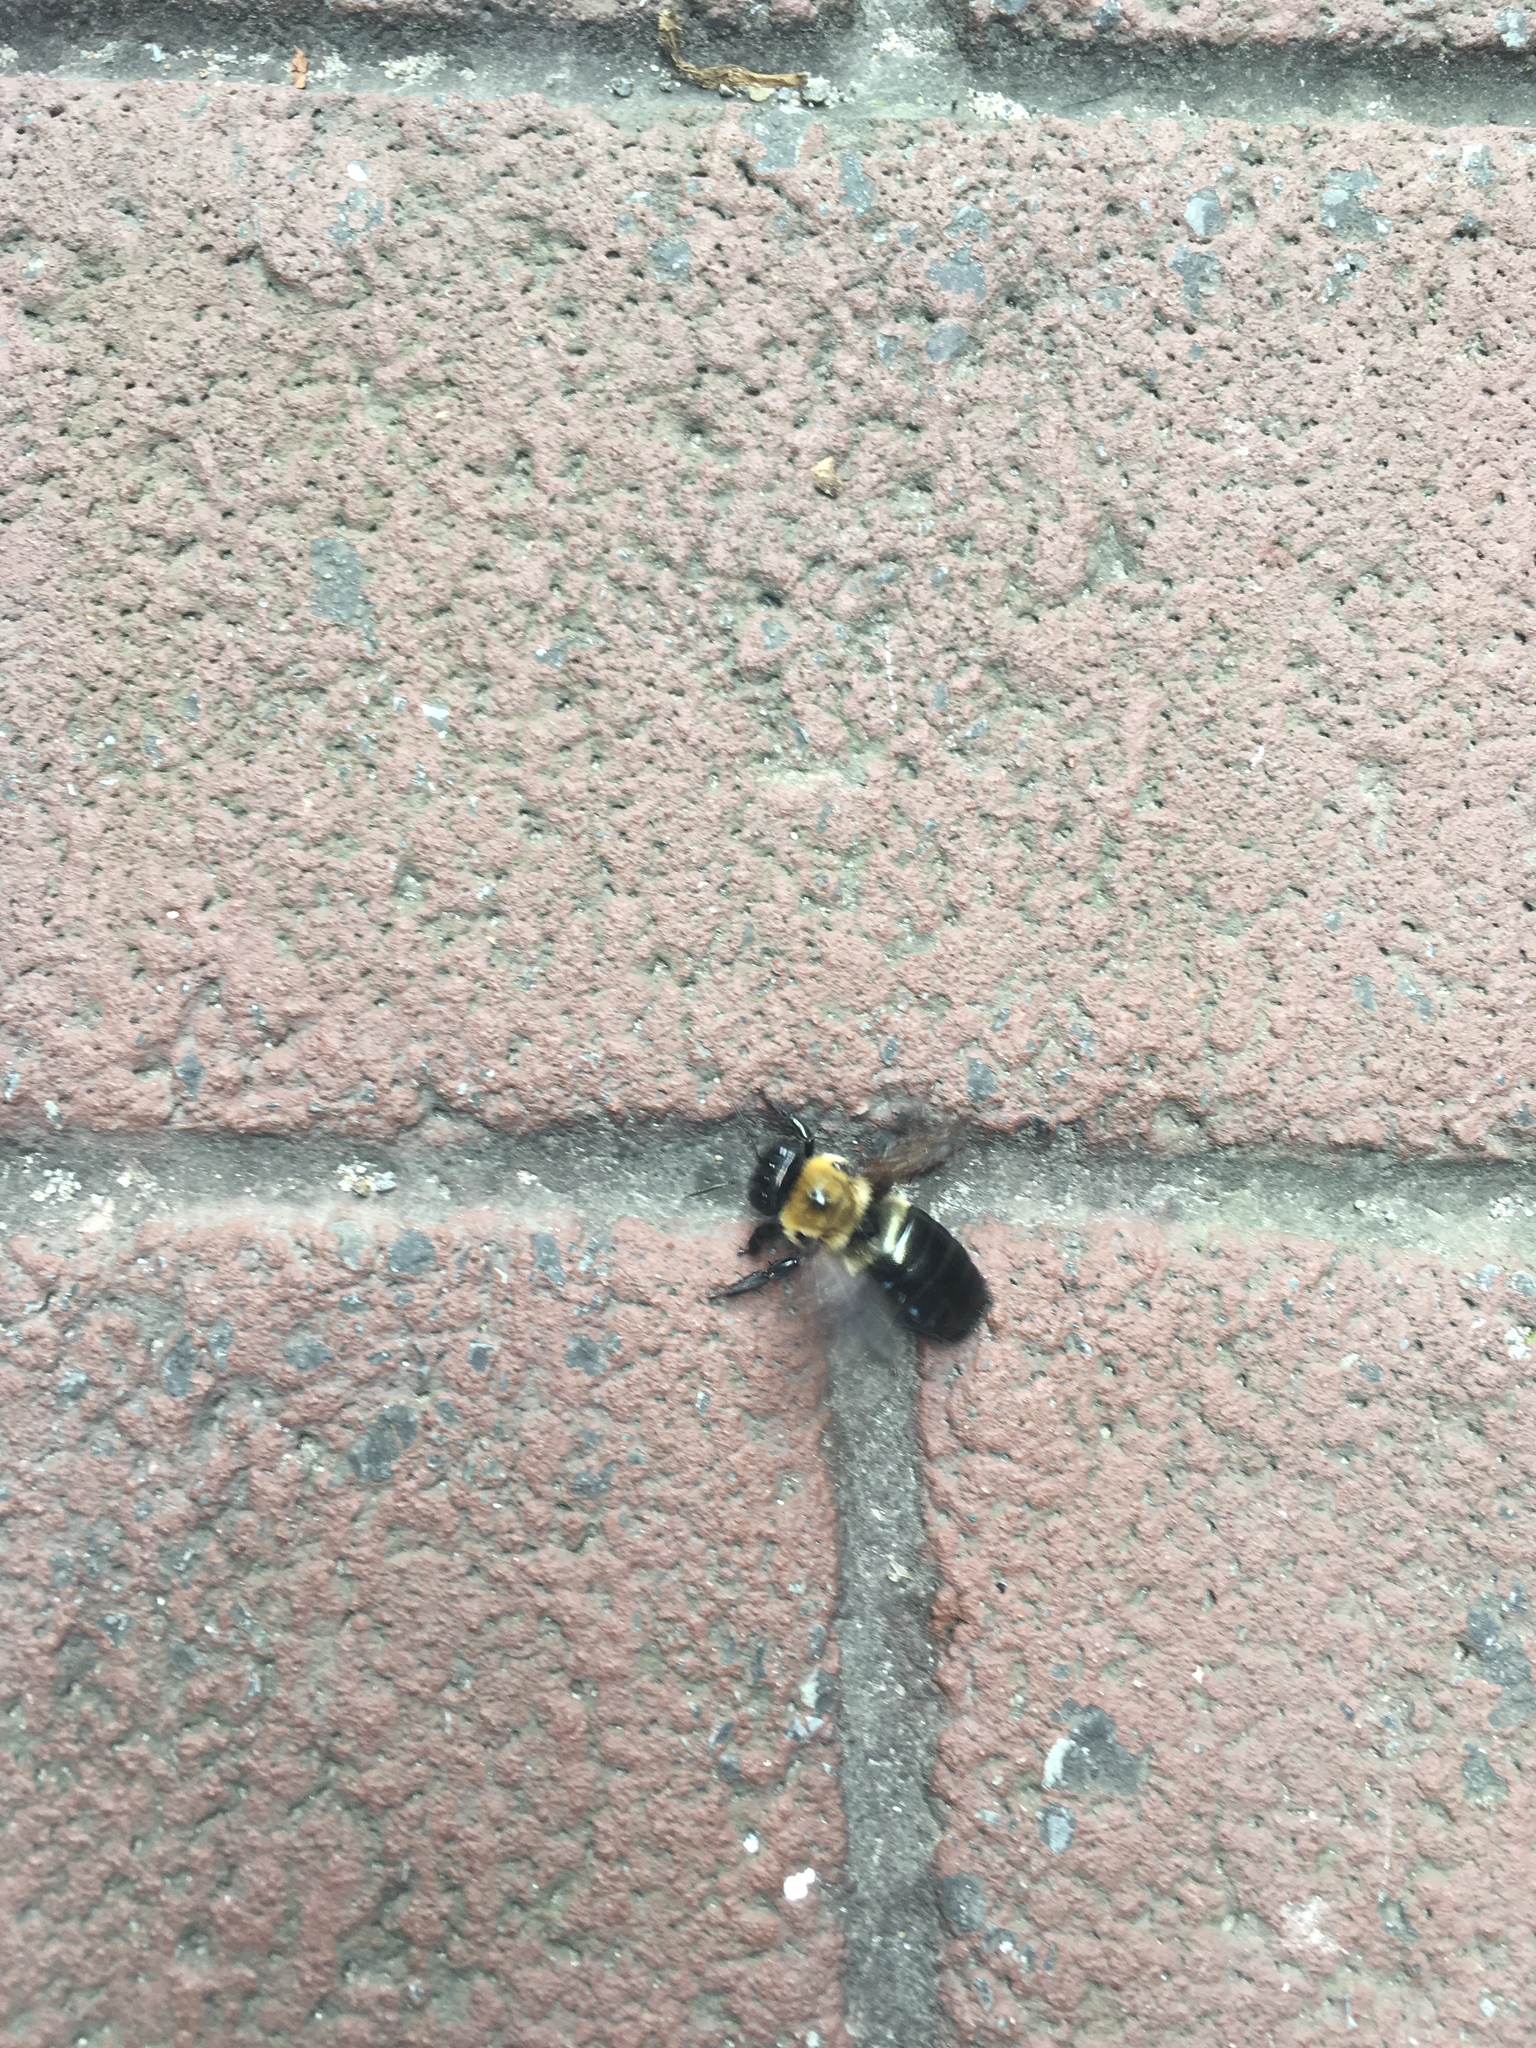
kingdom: Animalia
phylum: Arthropoda
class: Insecta
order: Hymenoptera
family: Apidae
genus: Xylocopa
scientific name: Xylocopa virginica
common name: Carpenter bee
